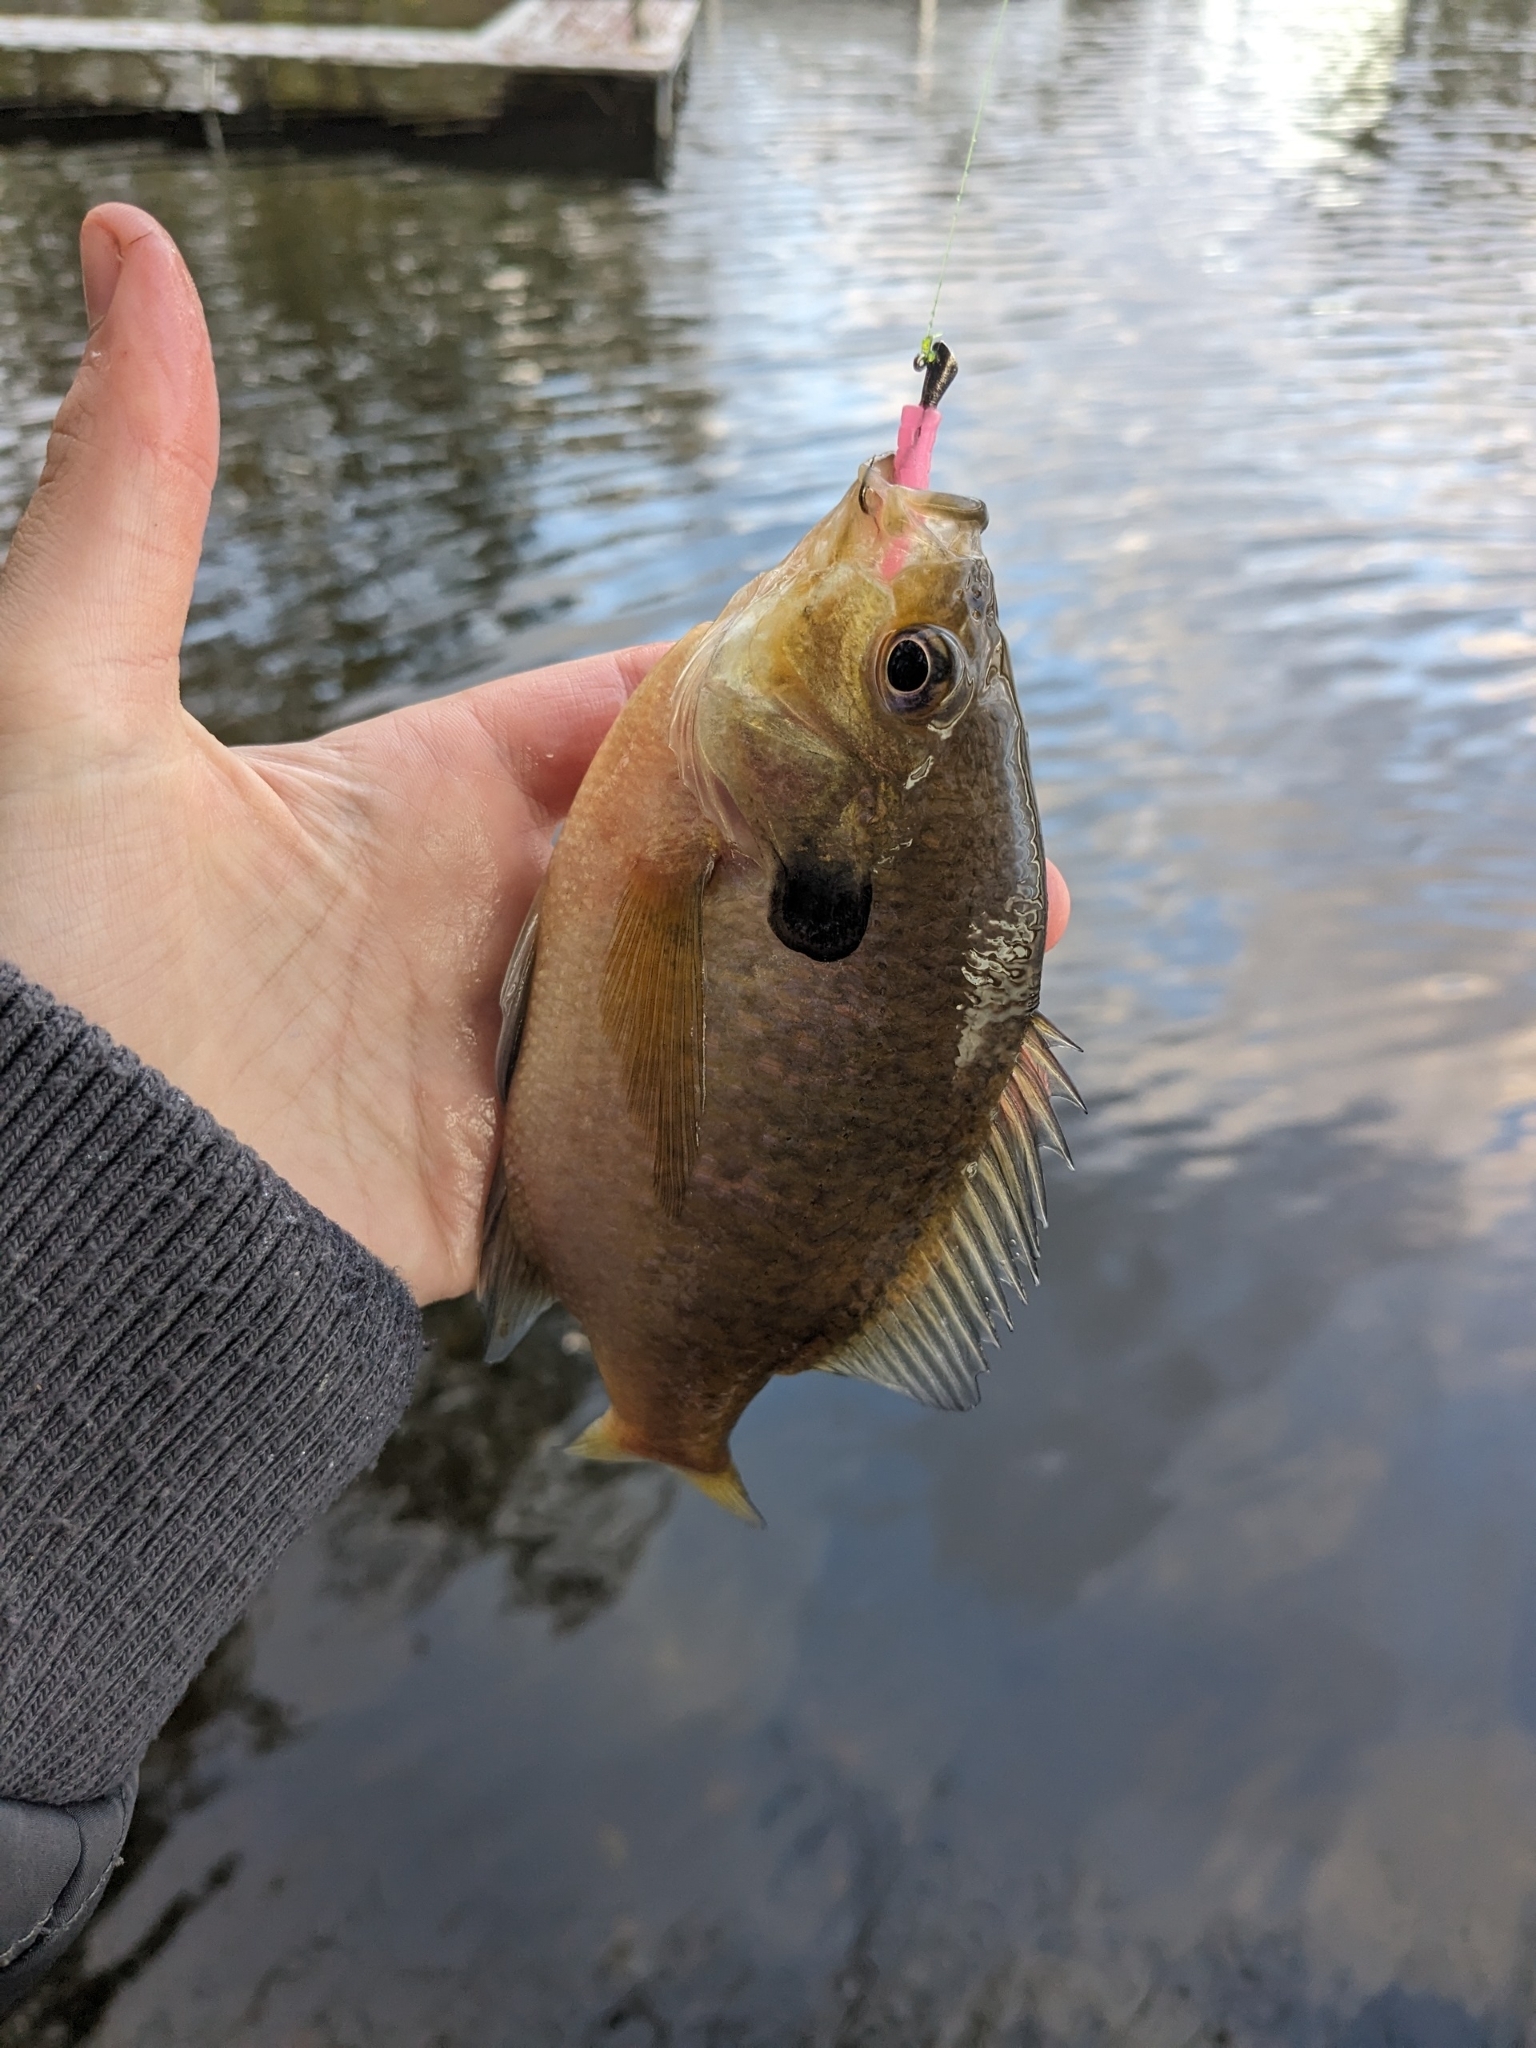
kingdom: Animalia
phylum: Chordata
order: Perciformes
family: Centrarchidae
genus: Lepomis
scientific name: Lepomis macrochirus
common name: Bluegill
